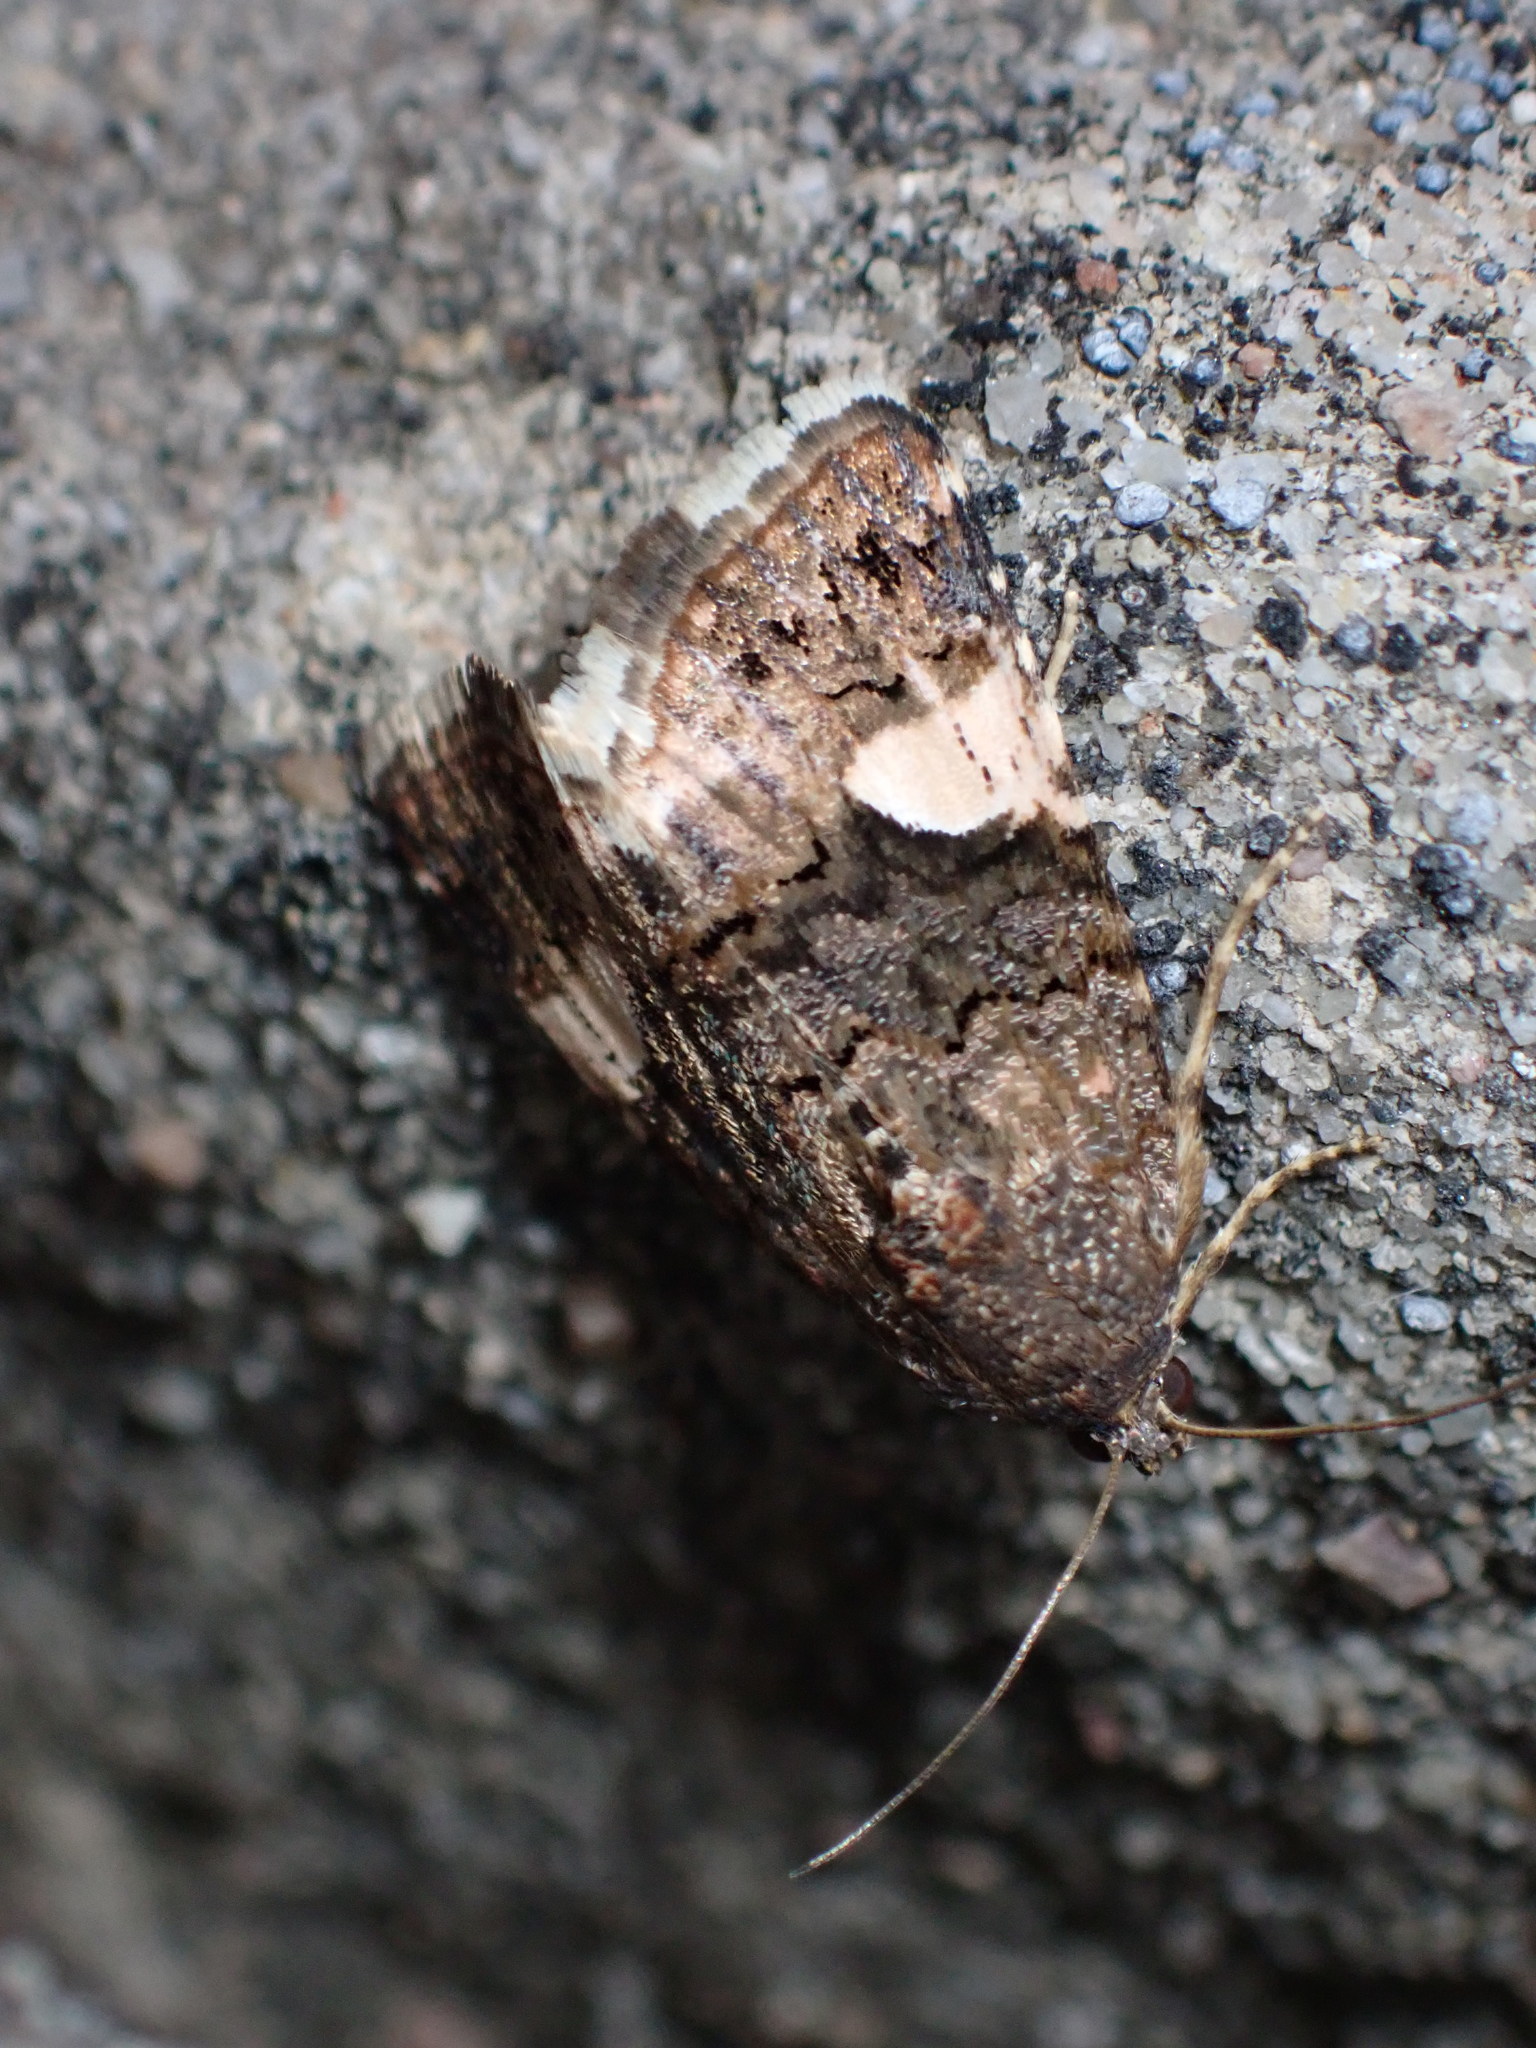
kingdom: Animalia
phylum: Arthropoda
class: Insecta
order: Lepidoptera
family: Erebidae
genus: Tyta
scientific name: Tyta luctuosa
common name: Four-spotted
